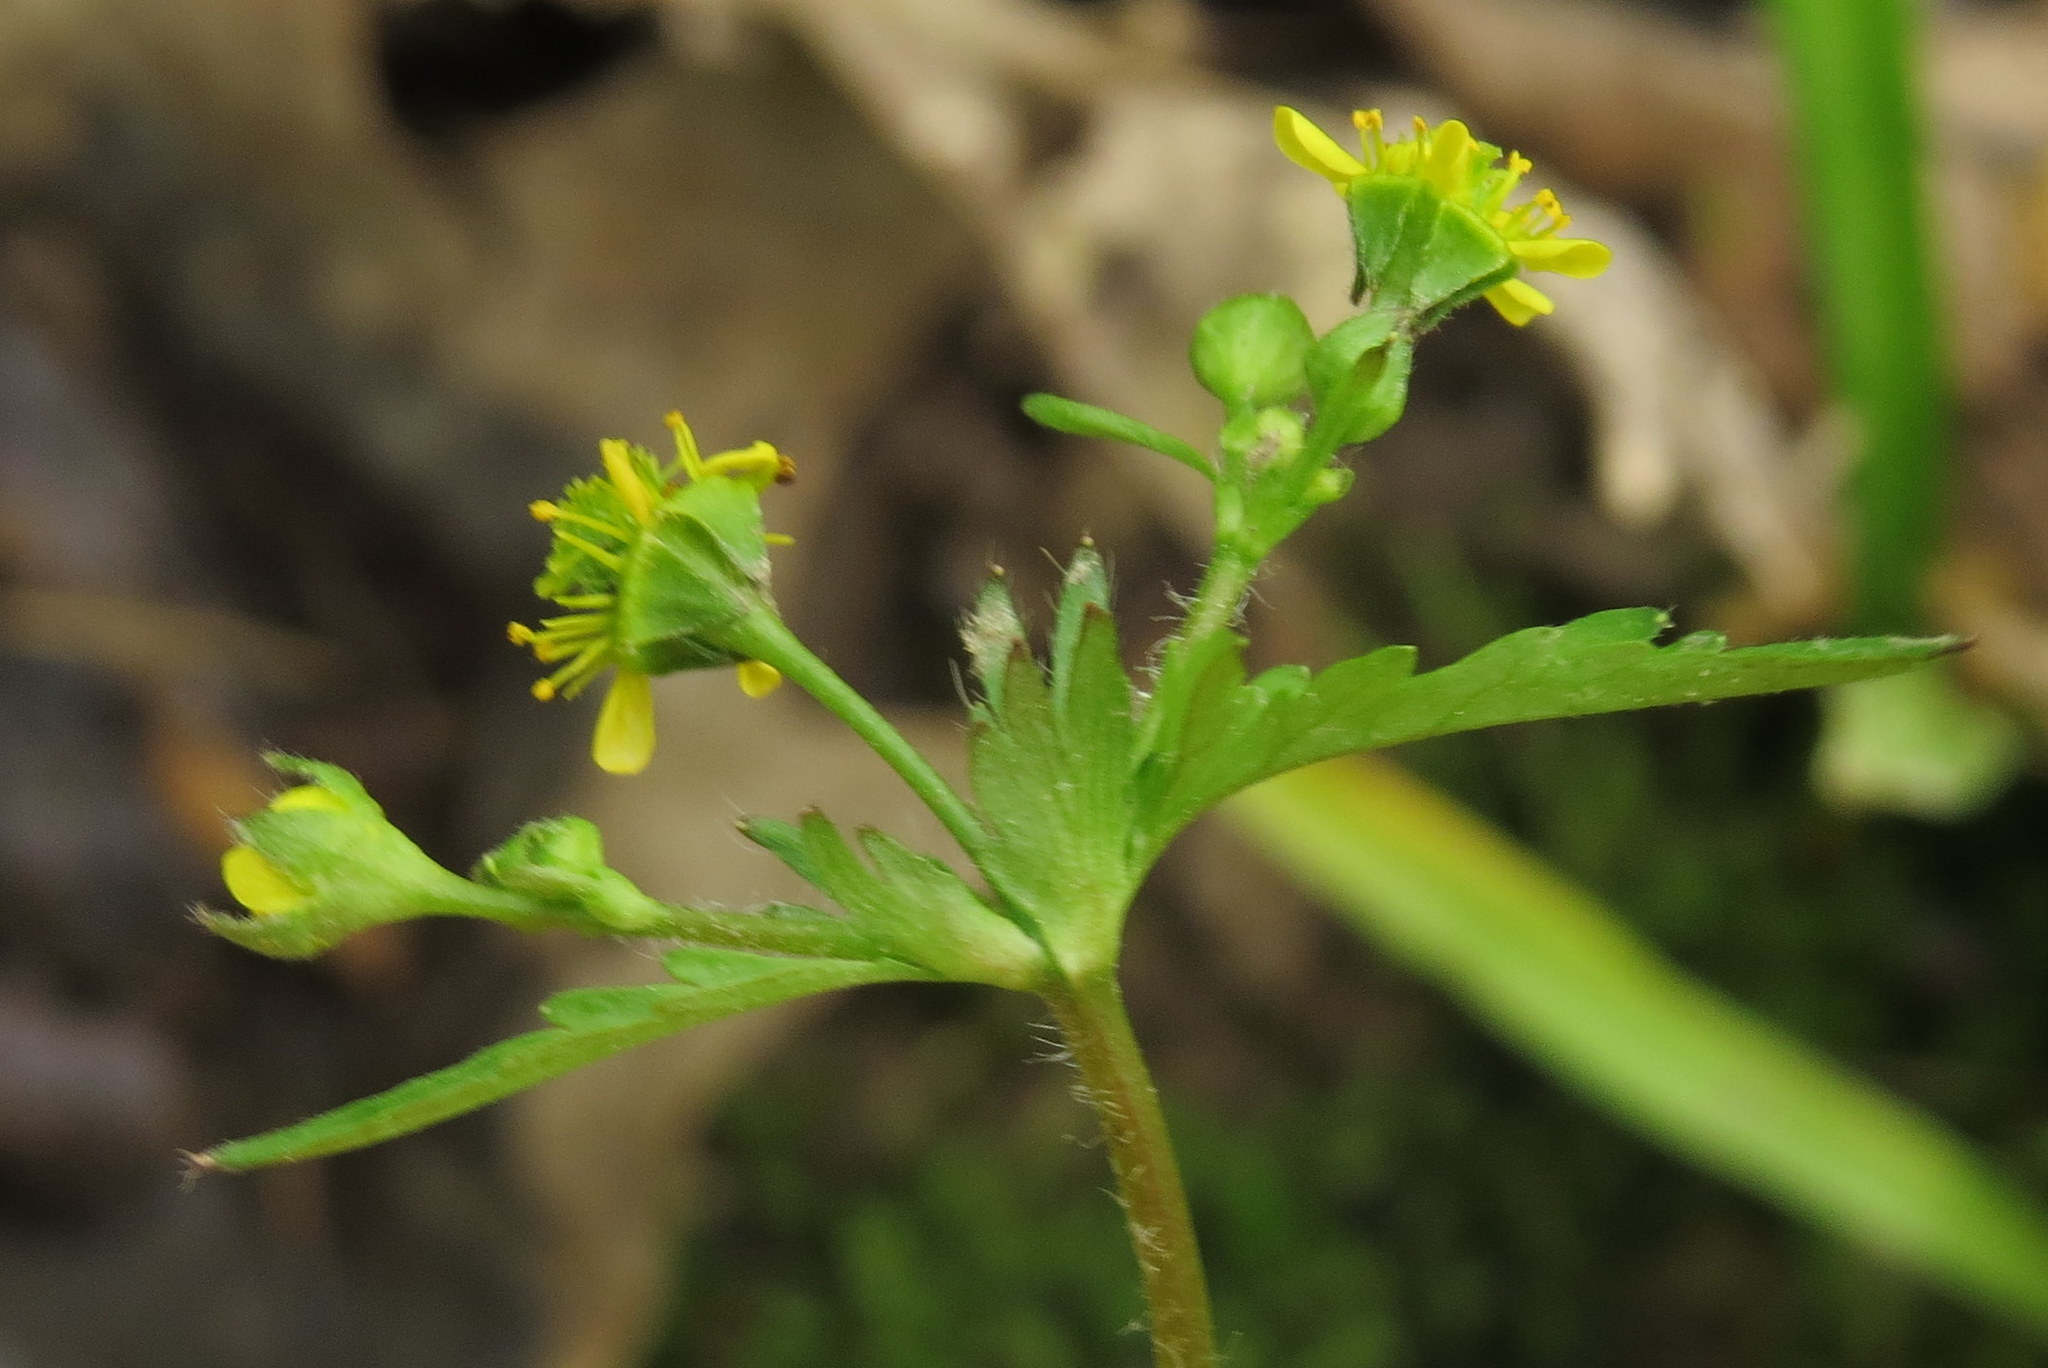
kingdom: Plantae
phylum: Tracheophyta
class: Magnoliopsida
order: Rosales
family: Rosaceae
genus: Geum
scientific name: Geum vernum
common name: Spring avens
